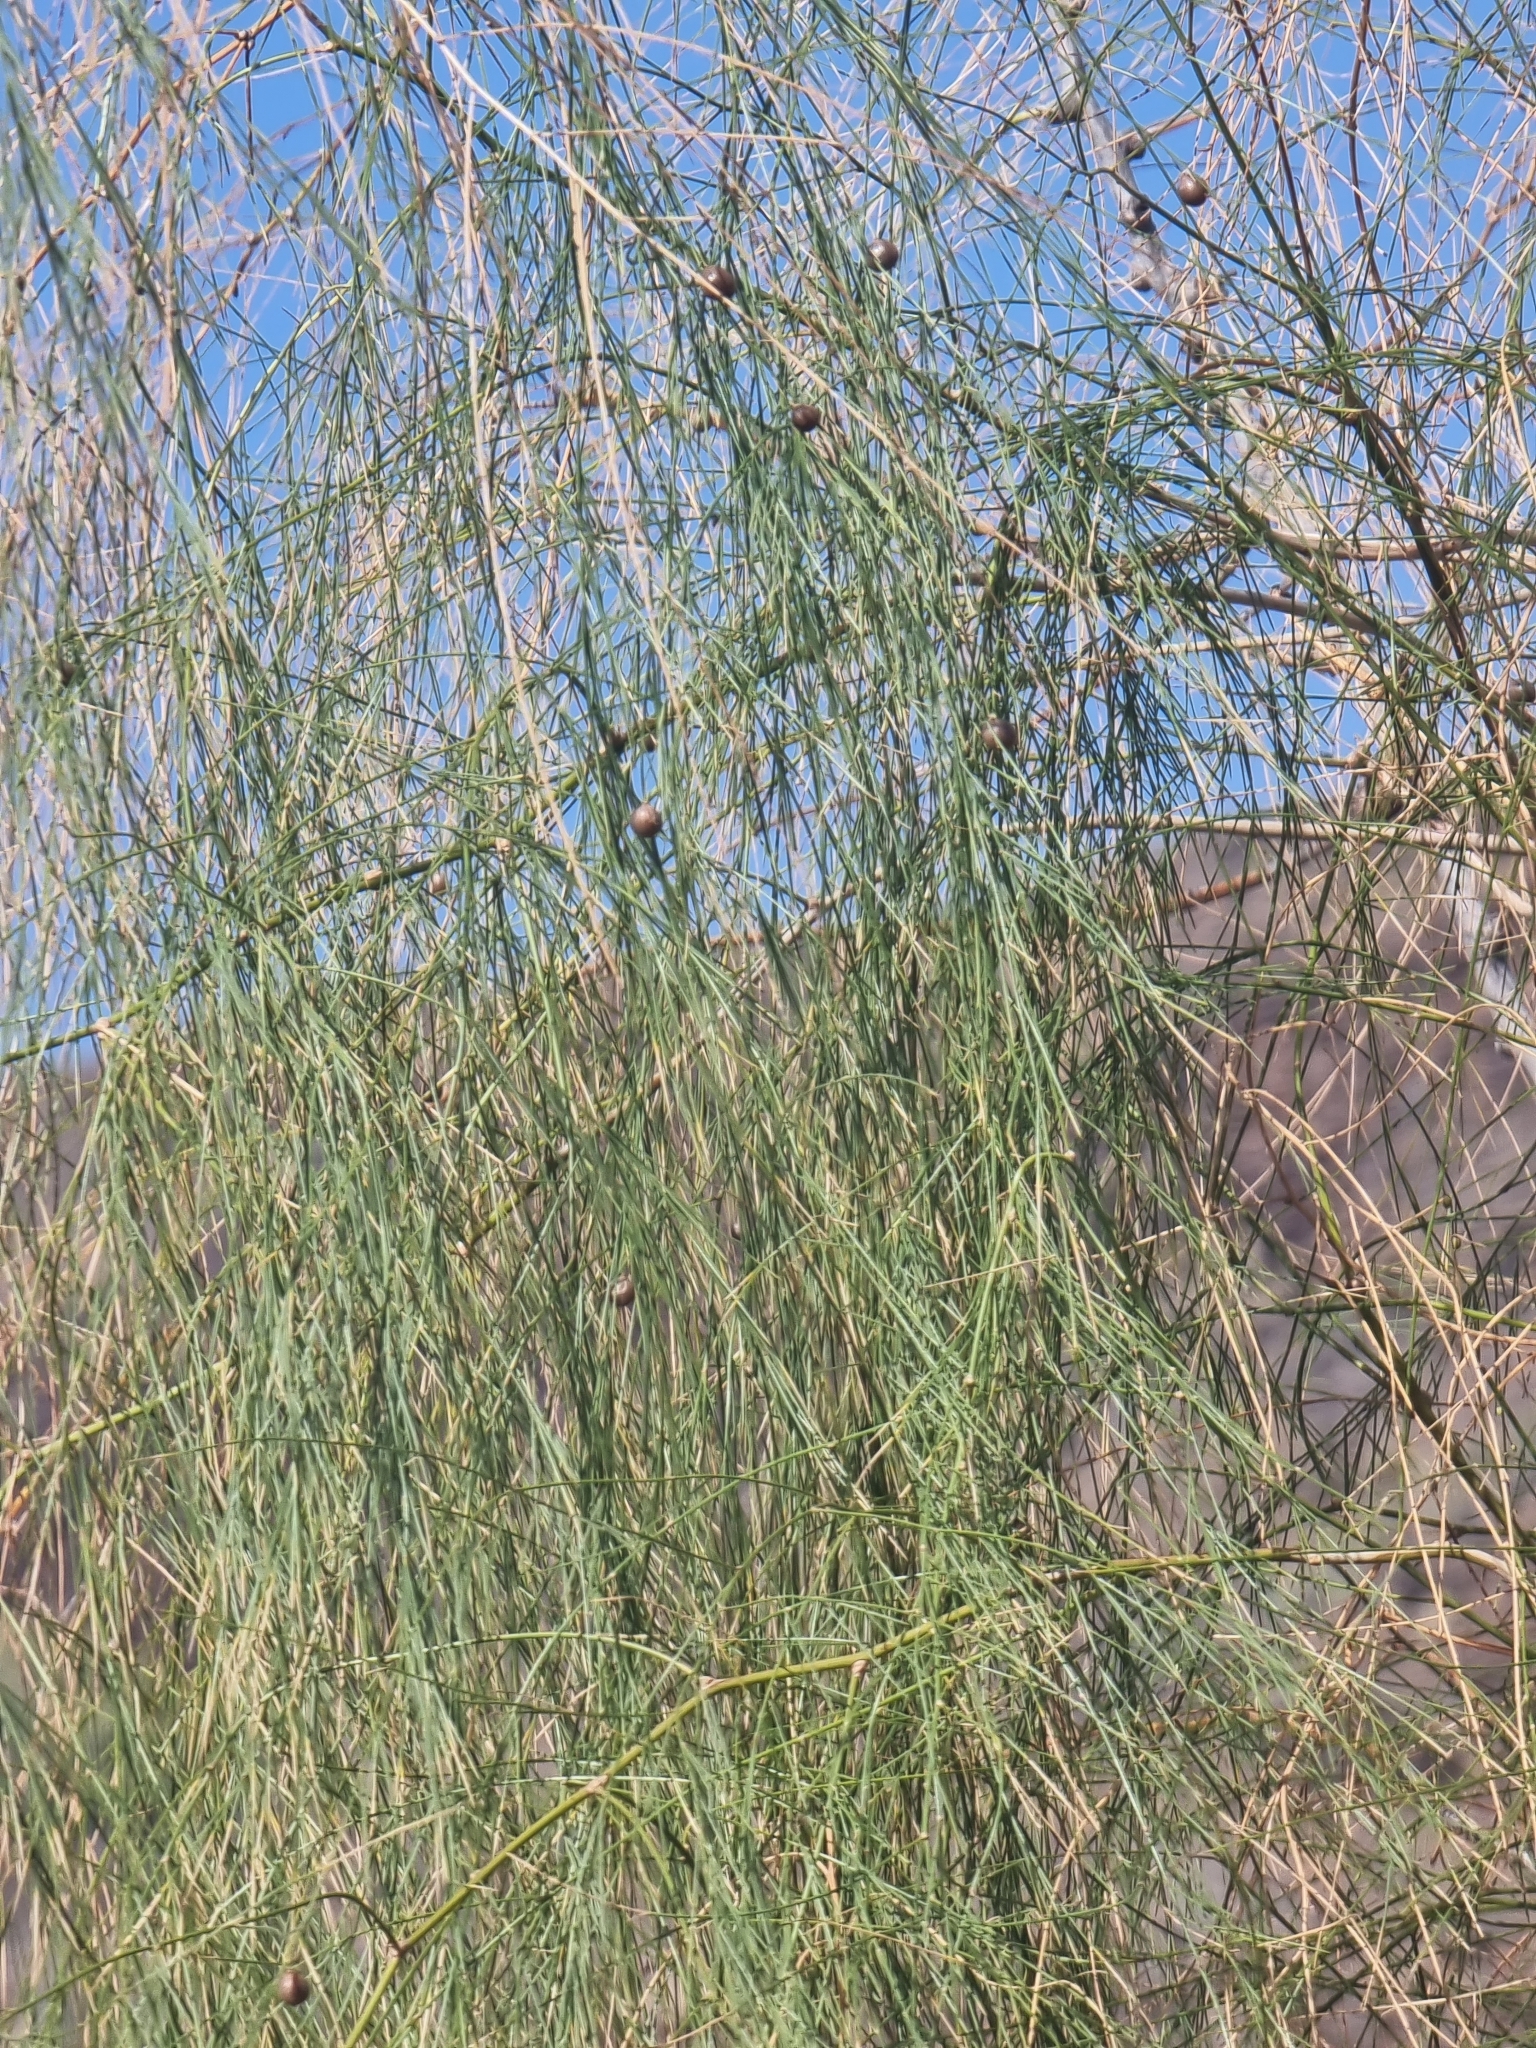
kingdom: Plantae
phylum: Tracheophyta
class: Liliopsida
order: Asparagales
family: Asparagaceae
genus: Asparagus
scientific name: Asparagus plocamoides
